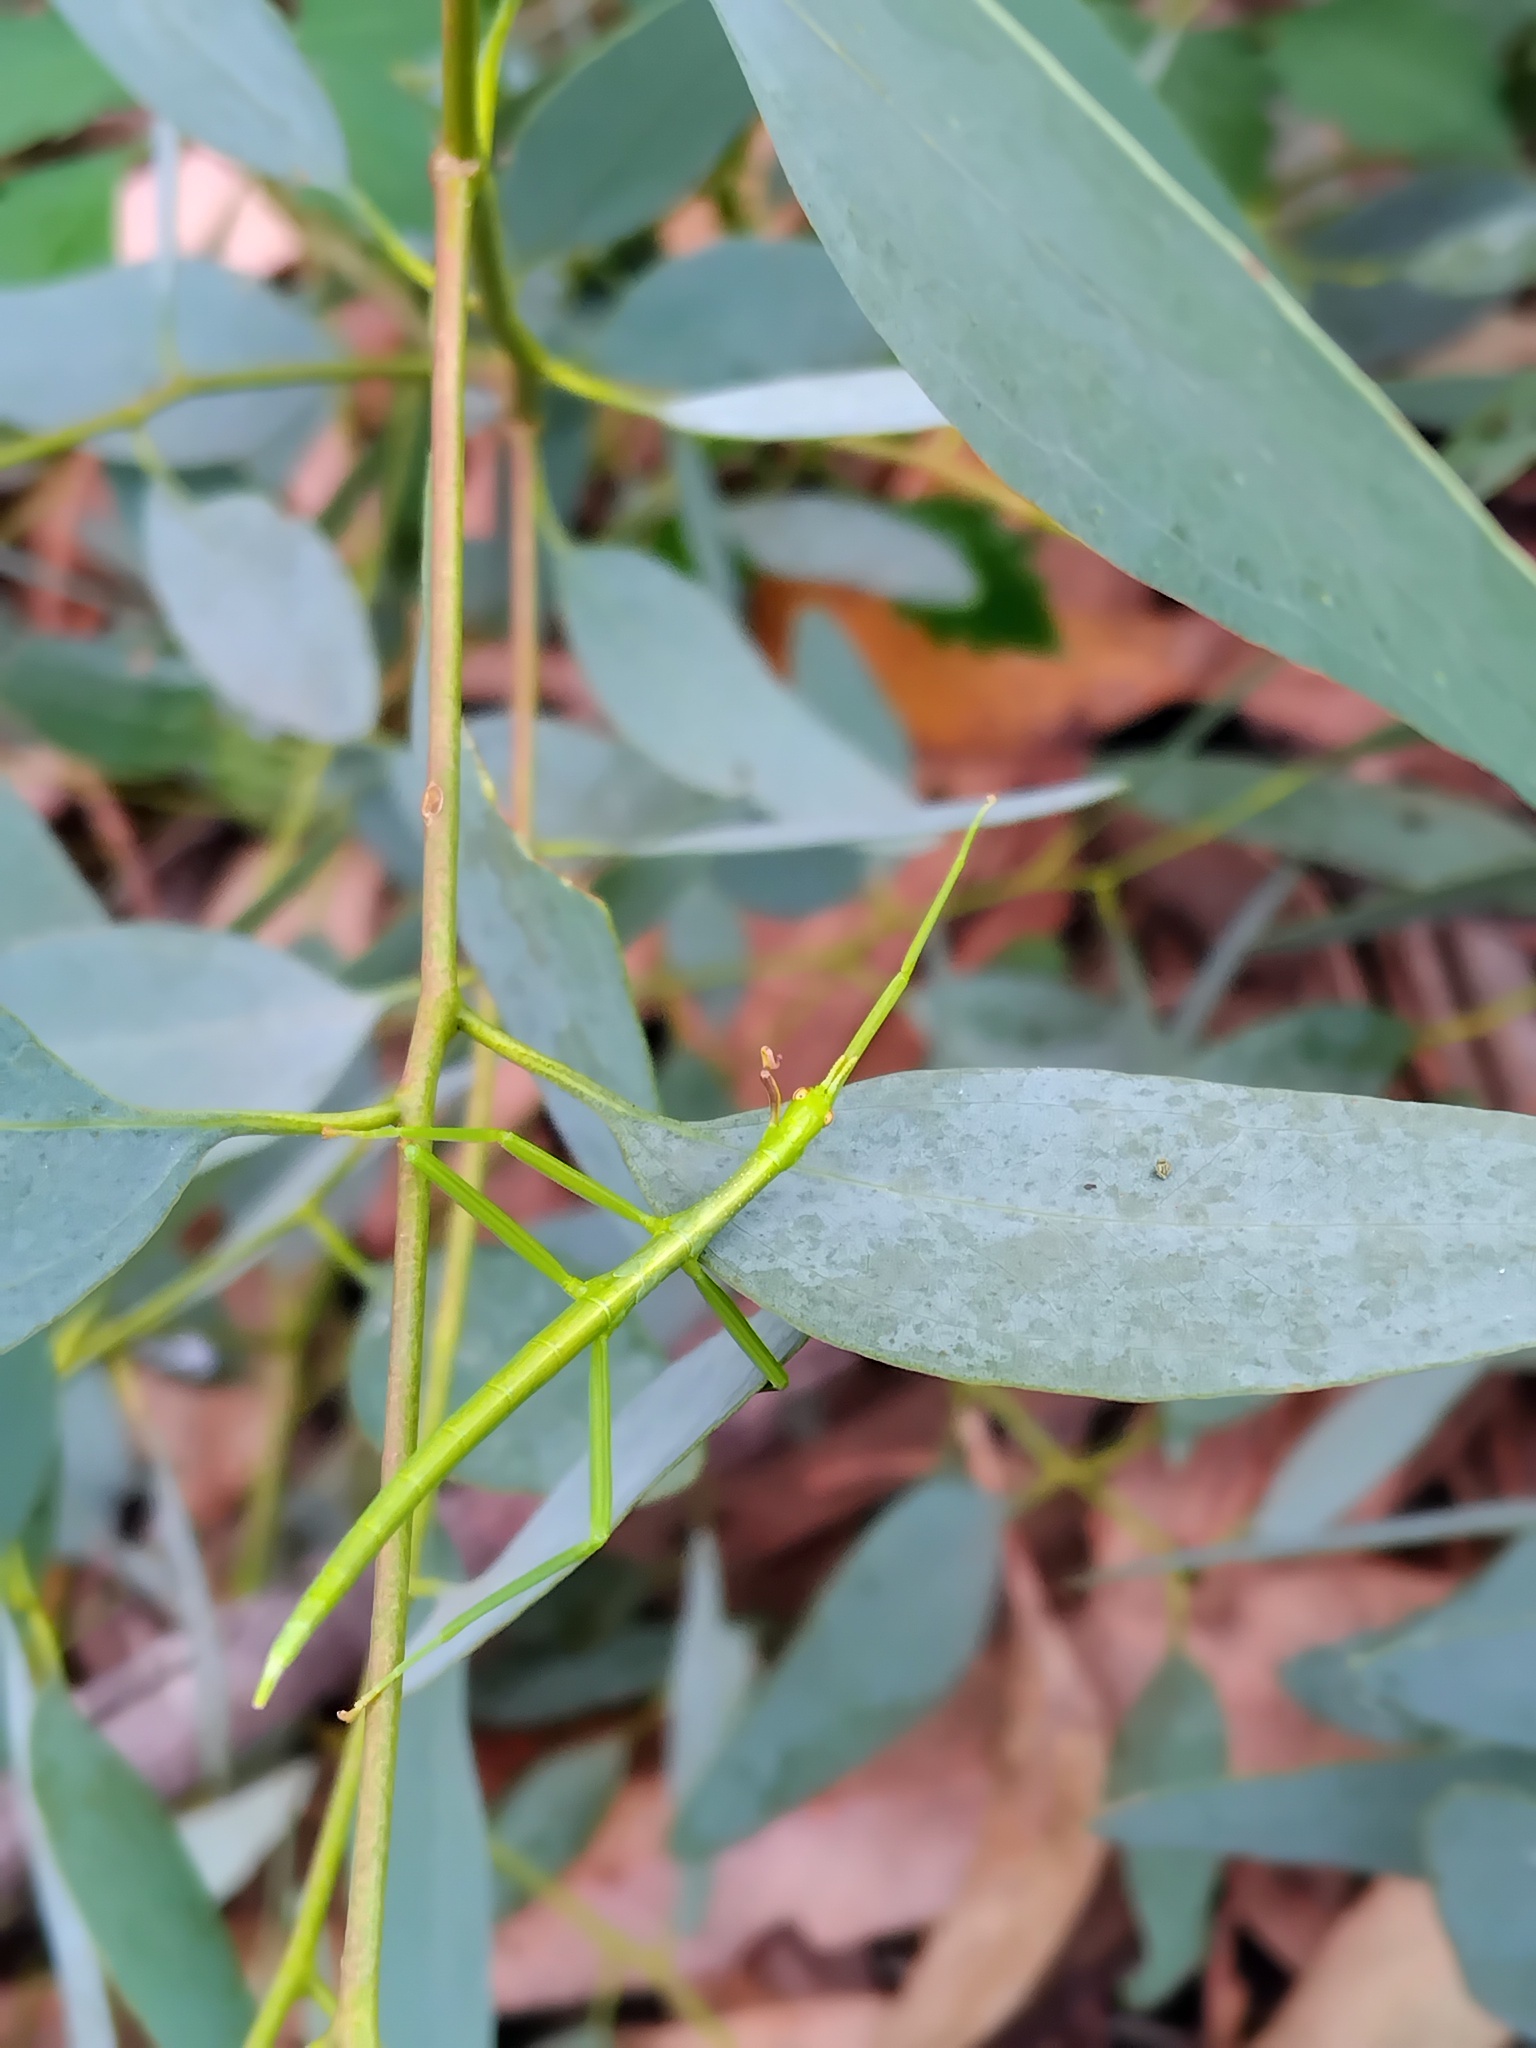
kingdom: Animalia
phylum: Arthropoda
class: Insecta
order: Phasmida
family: Phasmatidae
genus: Didymuria
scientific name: Didymuria violescens
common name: Spur-legged stick-insect
